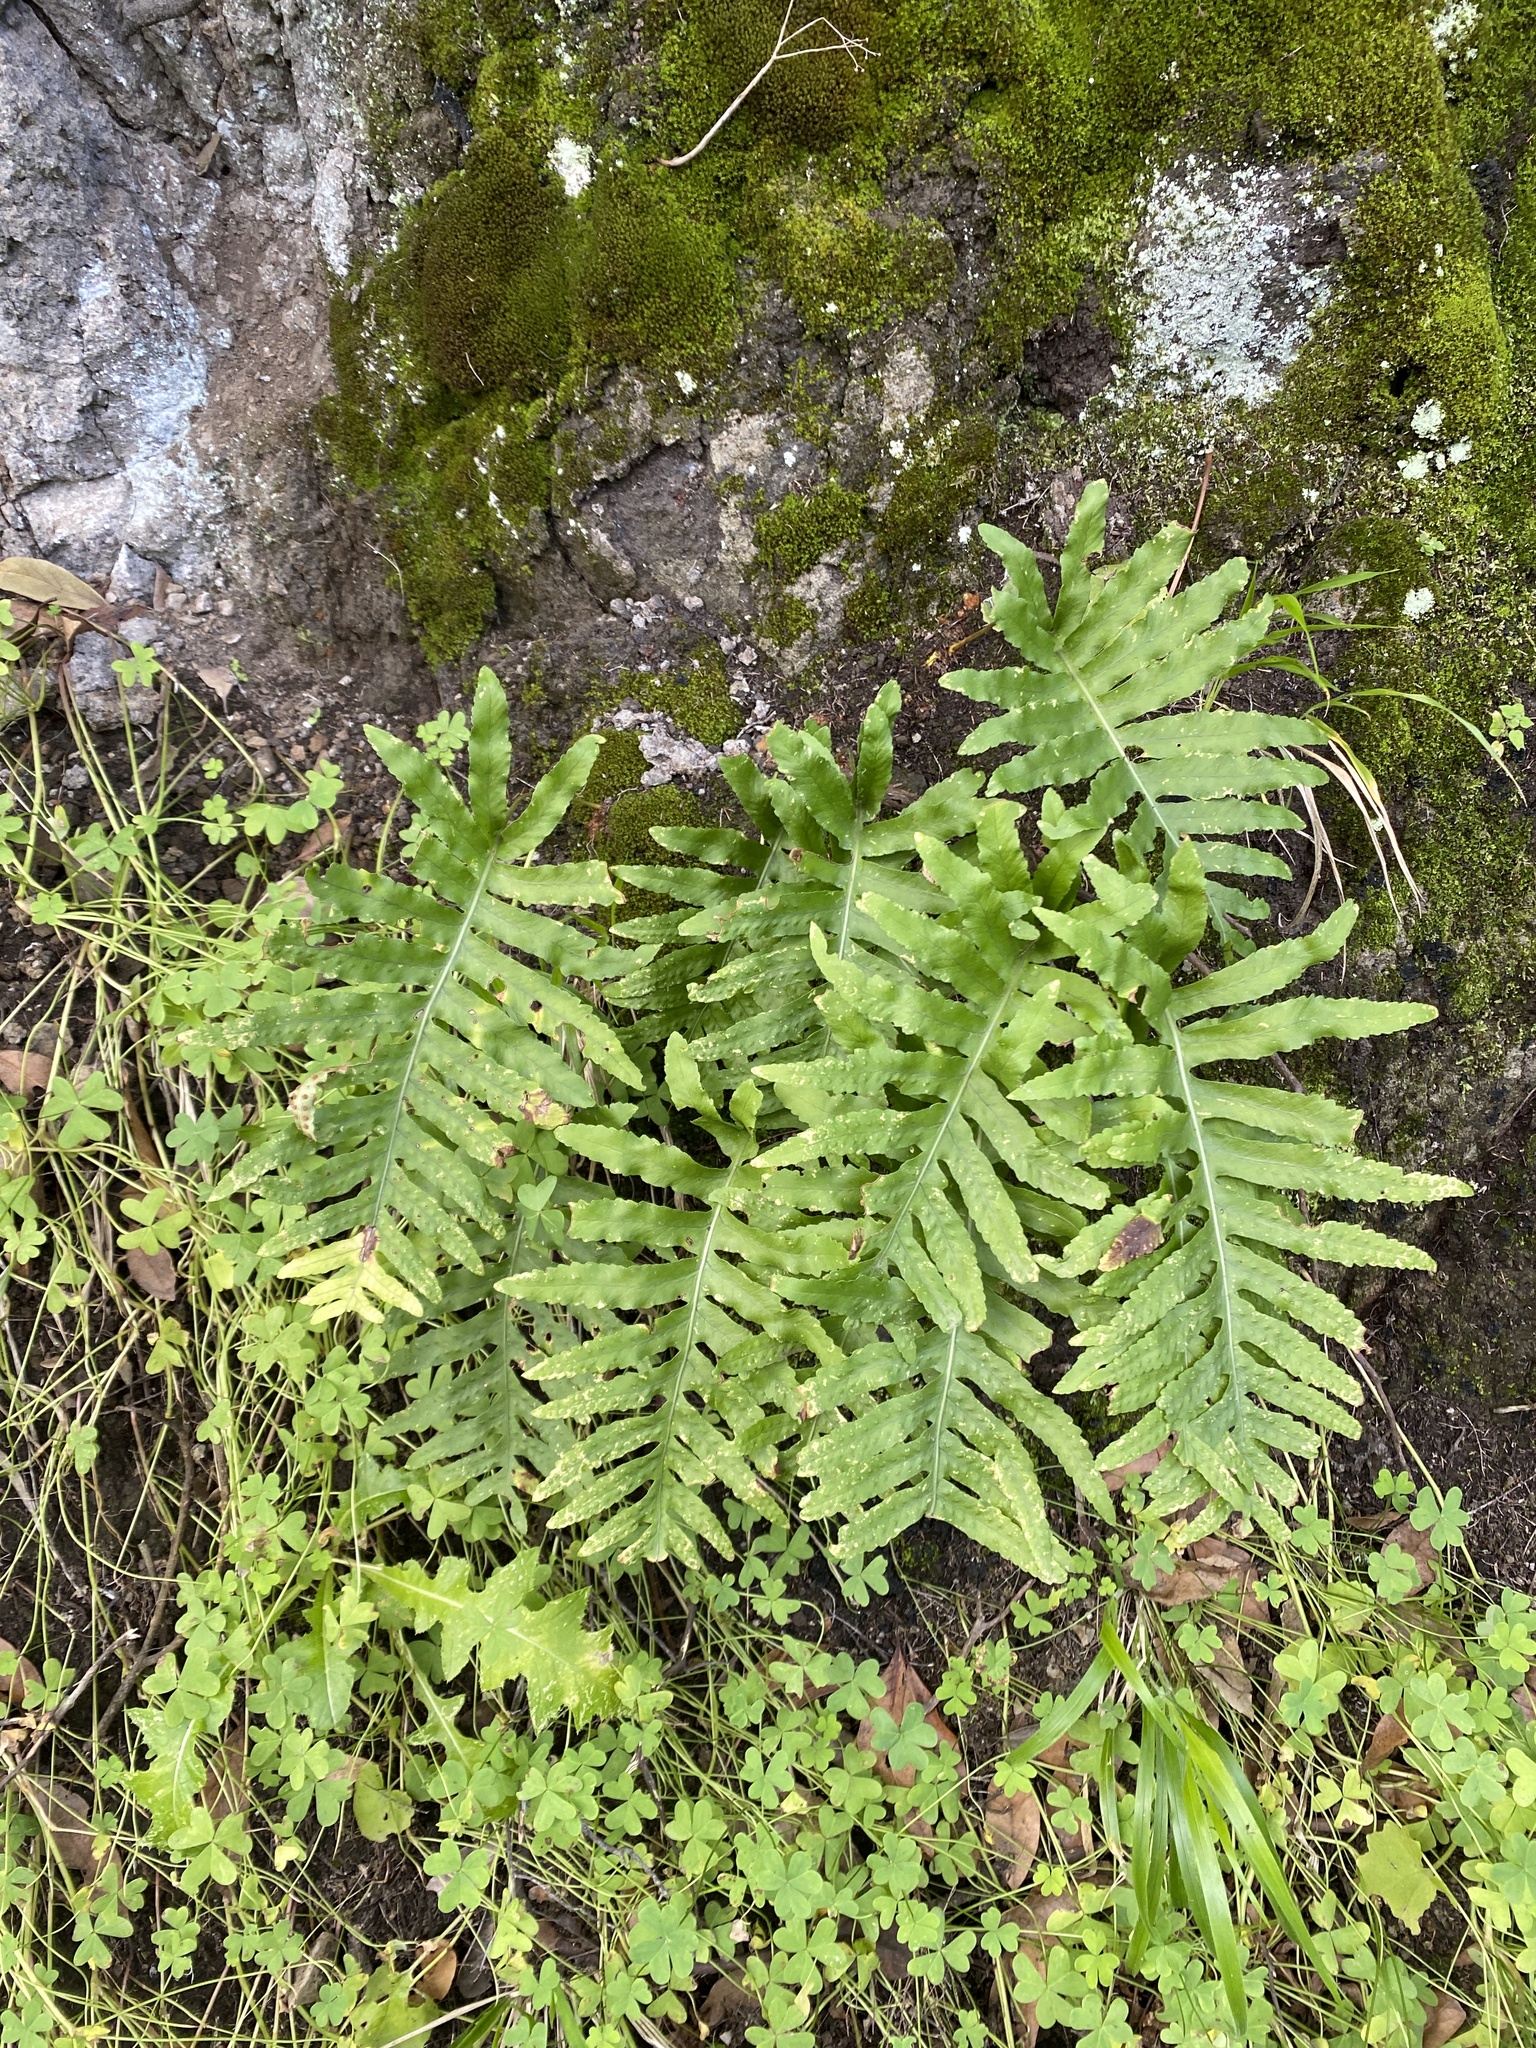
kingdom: Plantae
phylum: Tracheophyta
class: Polypodiopsida
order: Polypodiales
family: Polypodiaceae
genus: Polypodium
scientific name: Polypodium macaronesicum
